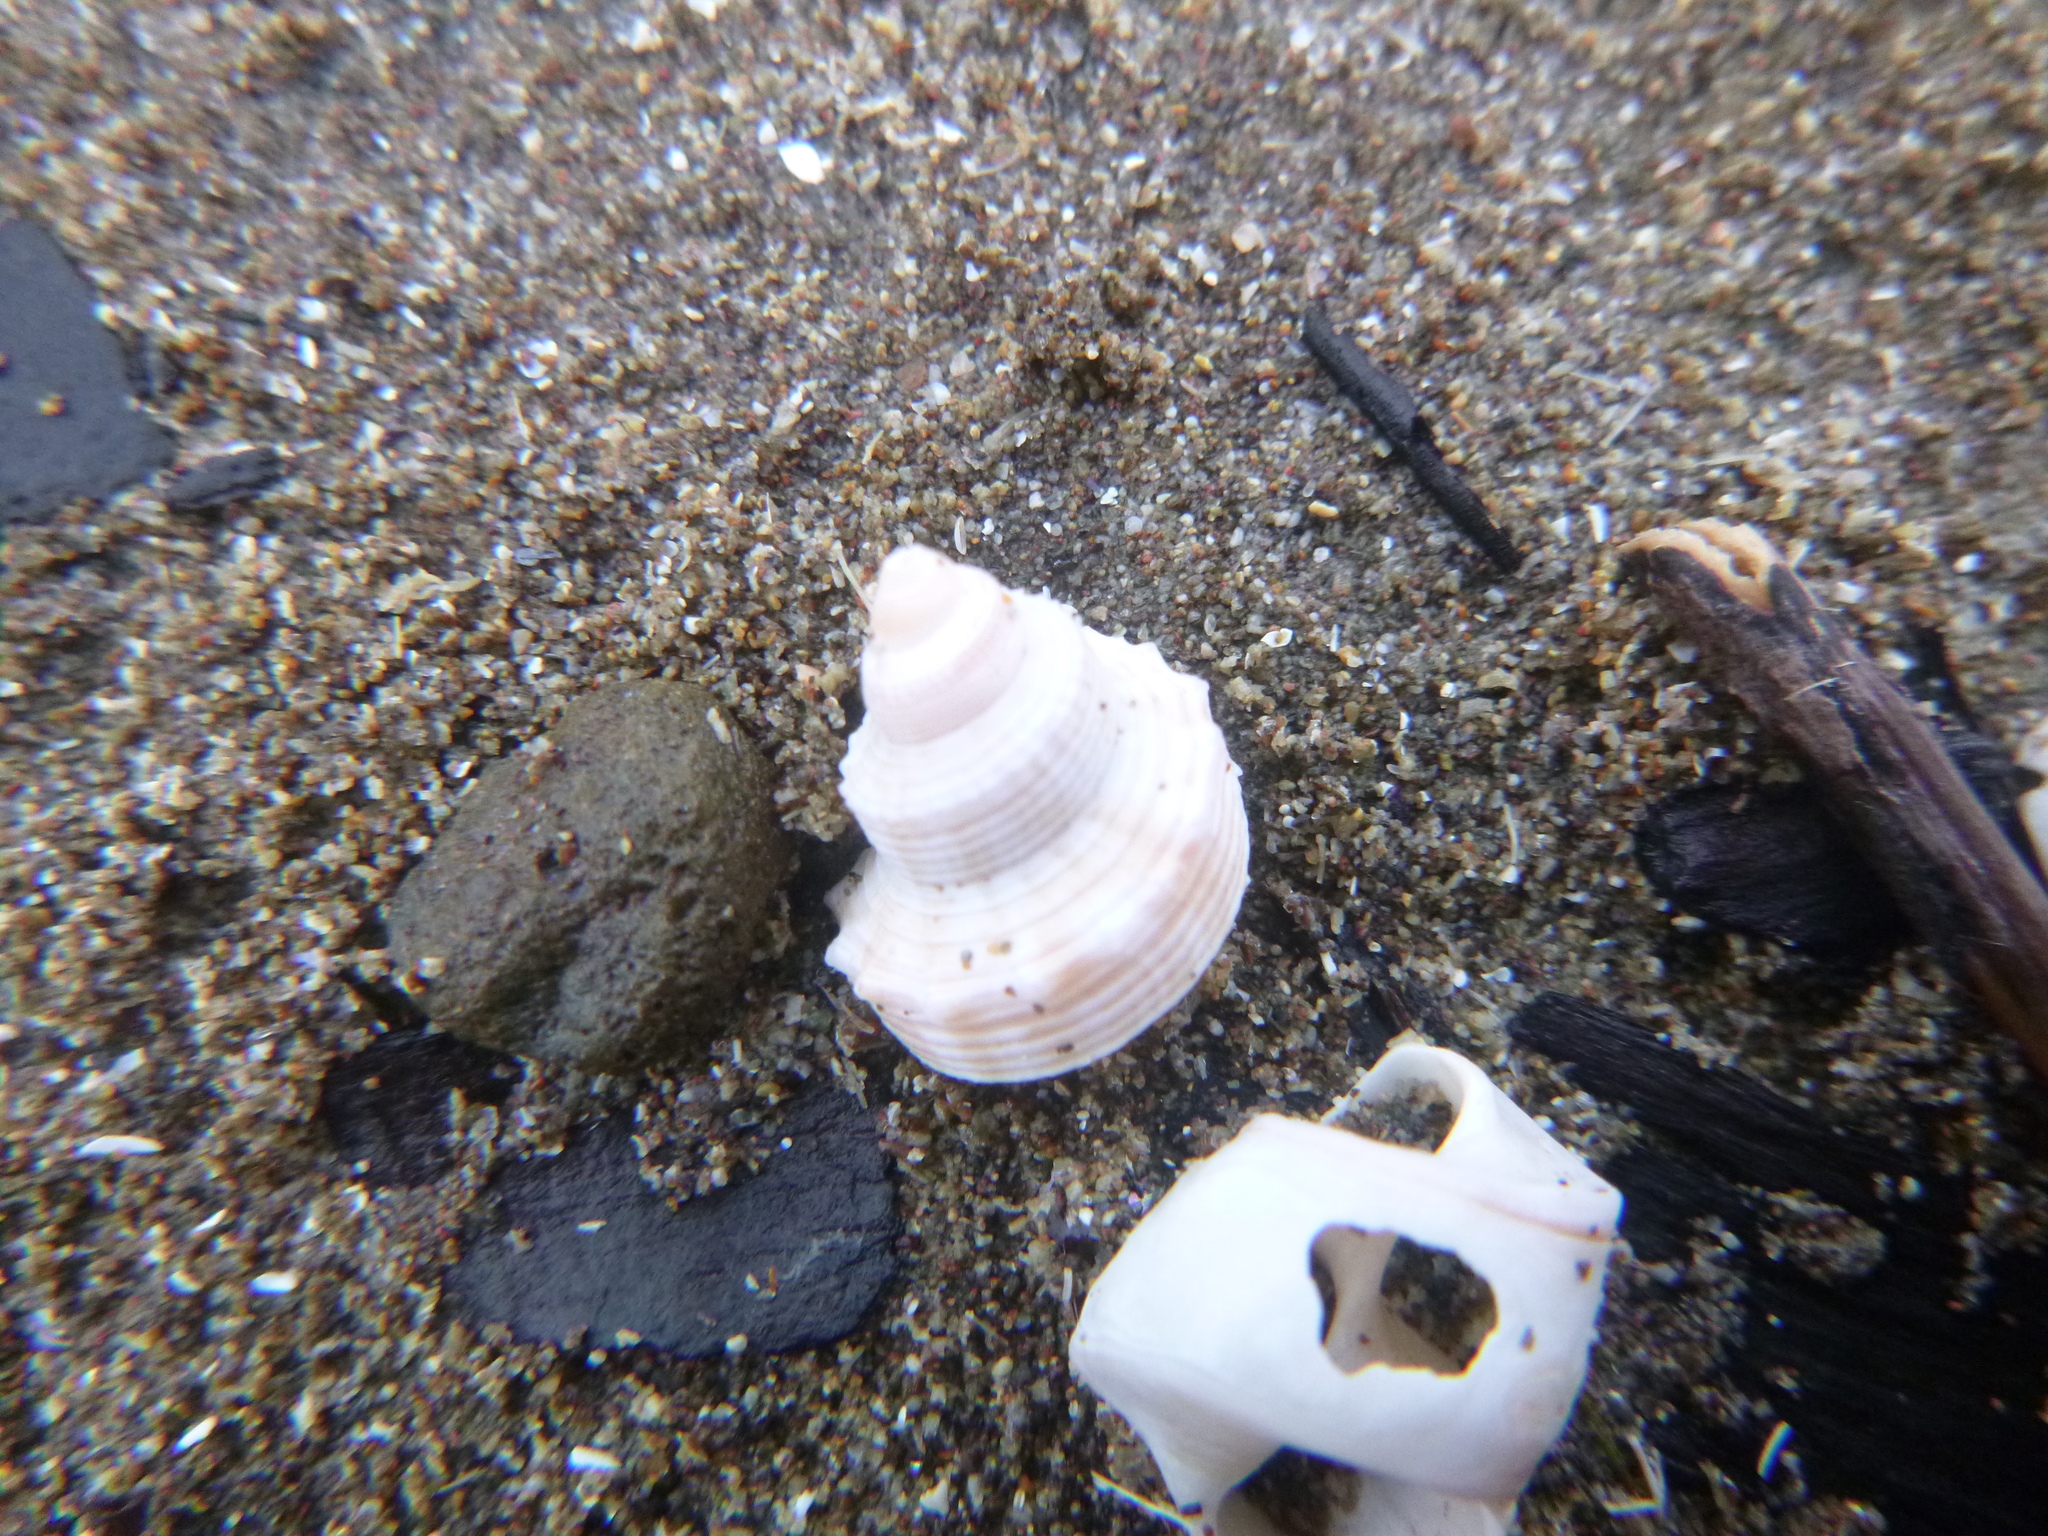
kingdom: Animalia
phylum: Mollusca
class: Gastropoda
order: Littorinimorpha
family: Struthiolariidae
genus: Struthiolaria
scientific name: Struthiolaria papulosa
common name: Large ostrich foot
